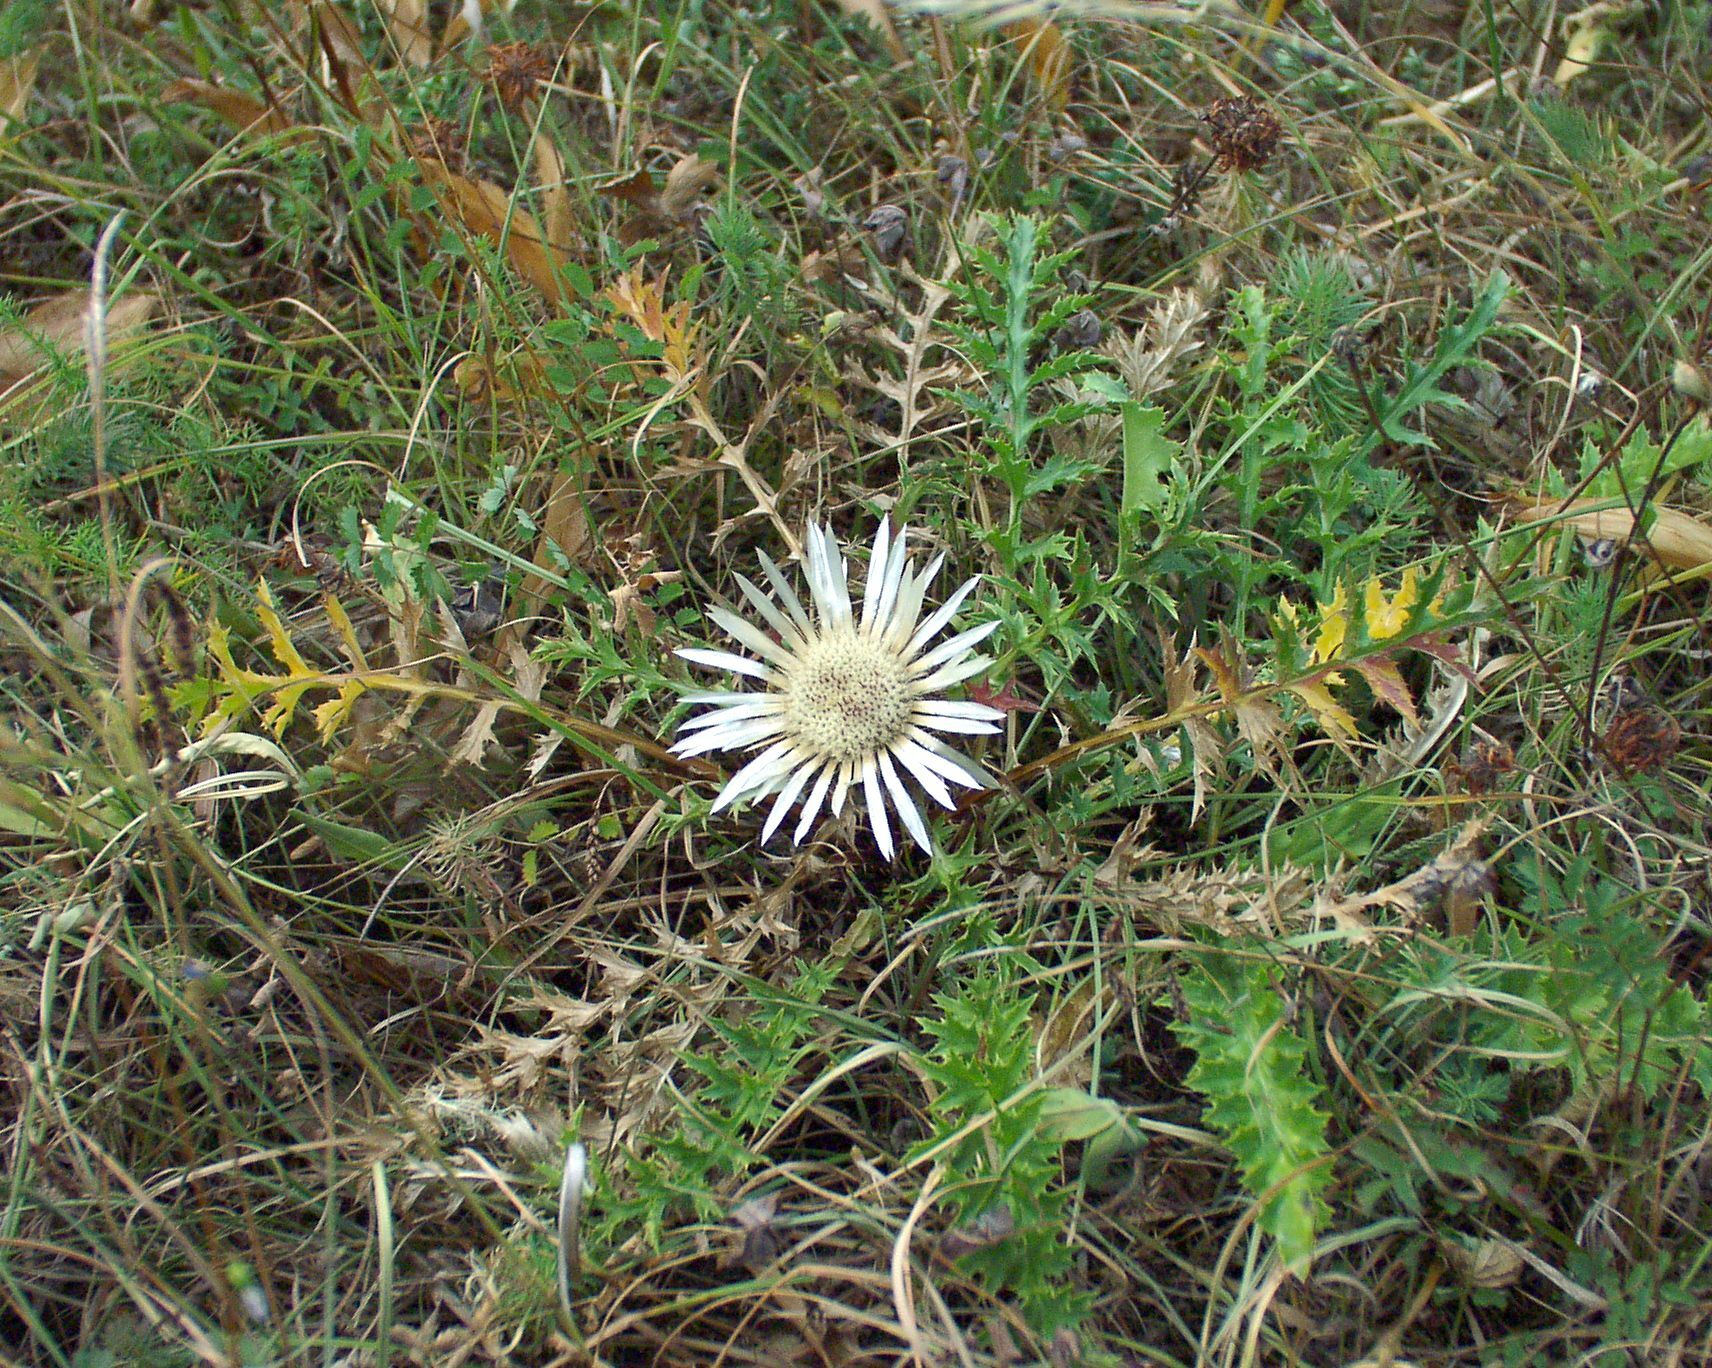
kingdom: Plantae
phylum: Tracheophyta
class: Magnoliopsida
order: Asterales
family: Asteraceae
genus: Carlina
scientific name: Carlina acaulis
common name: Stemless carline thistle
